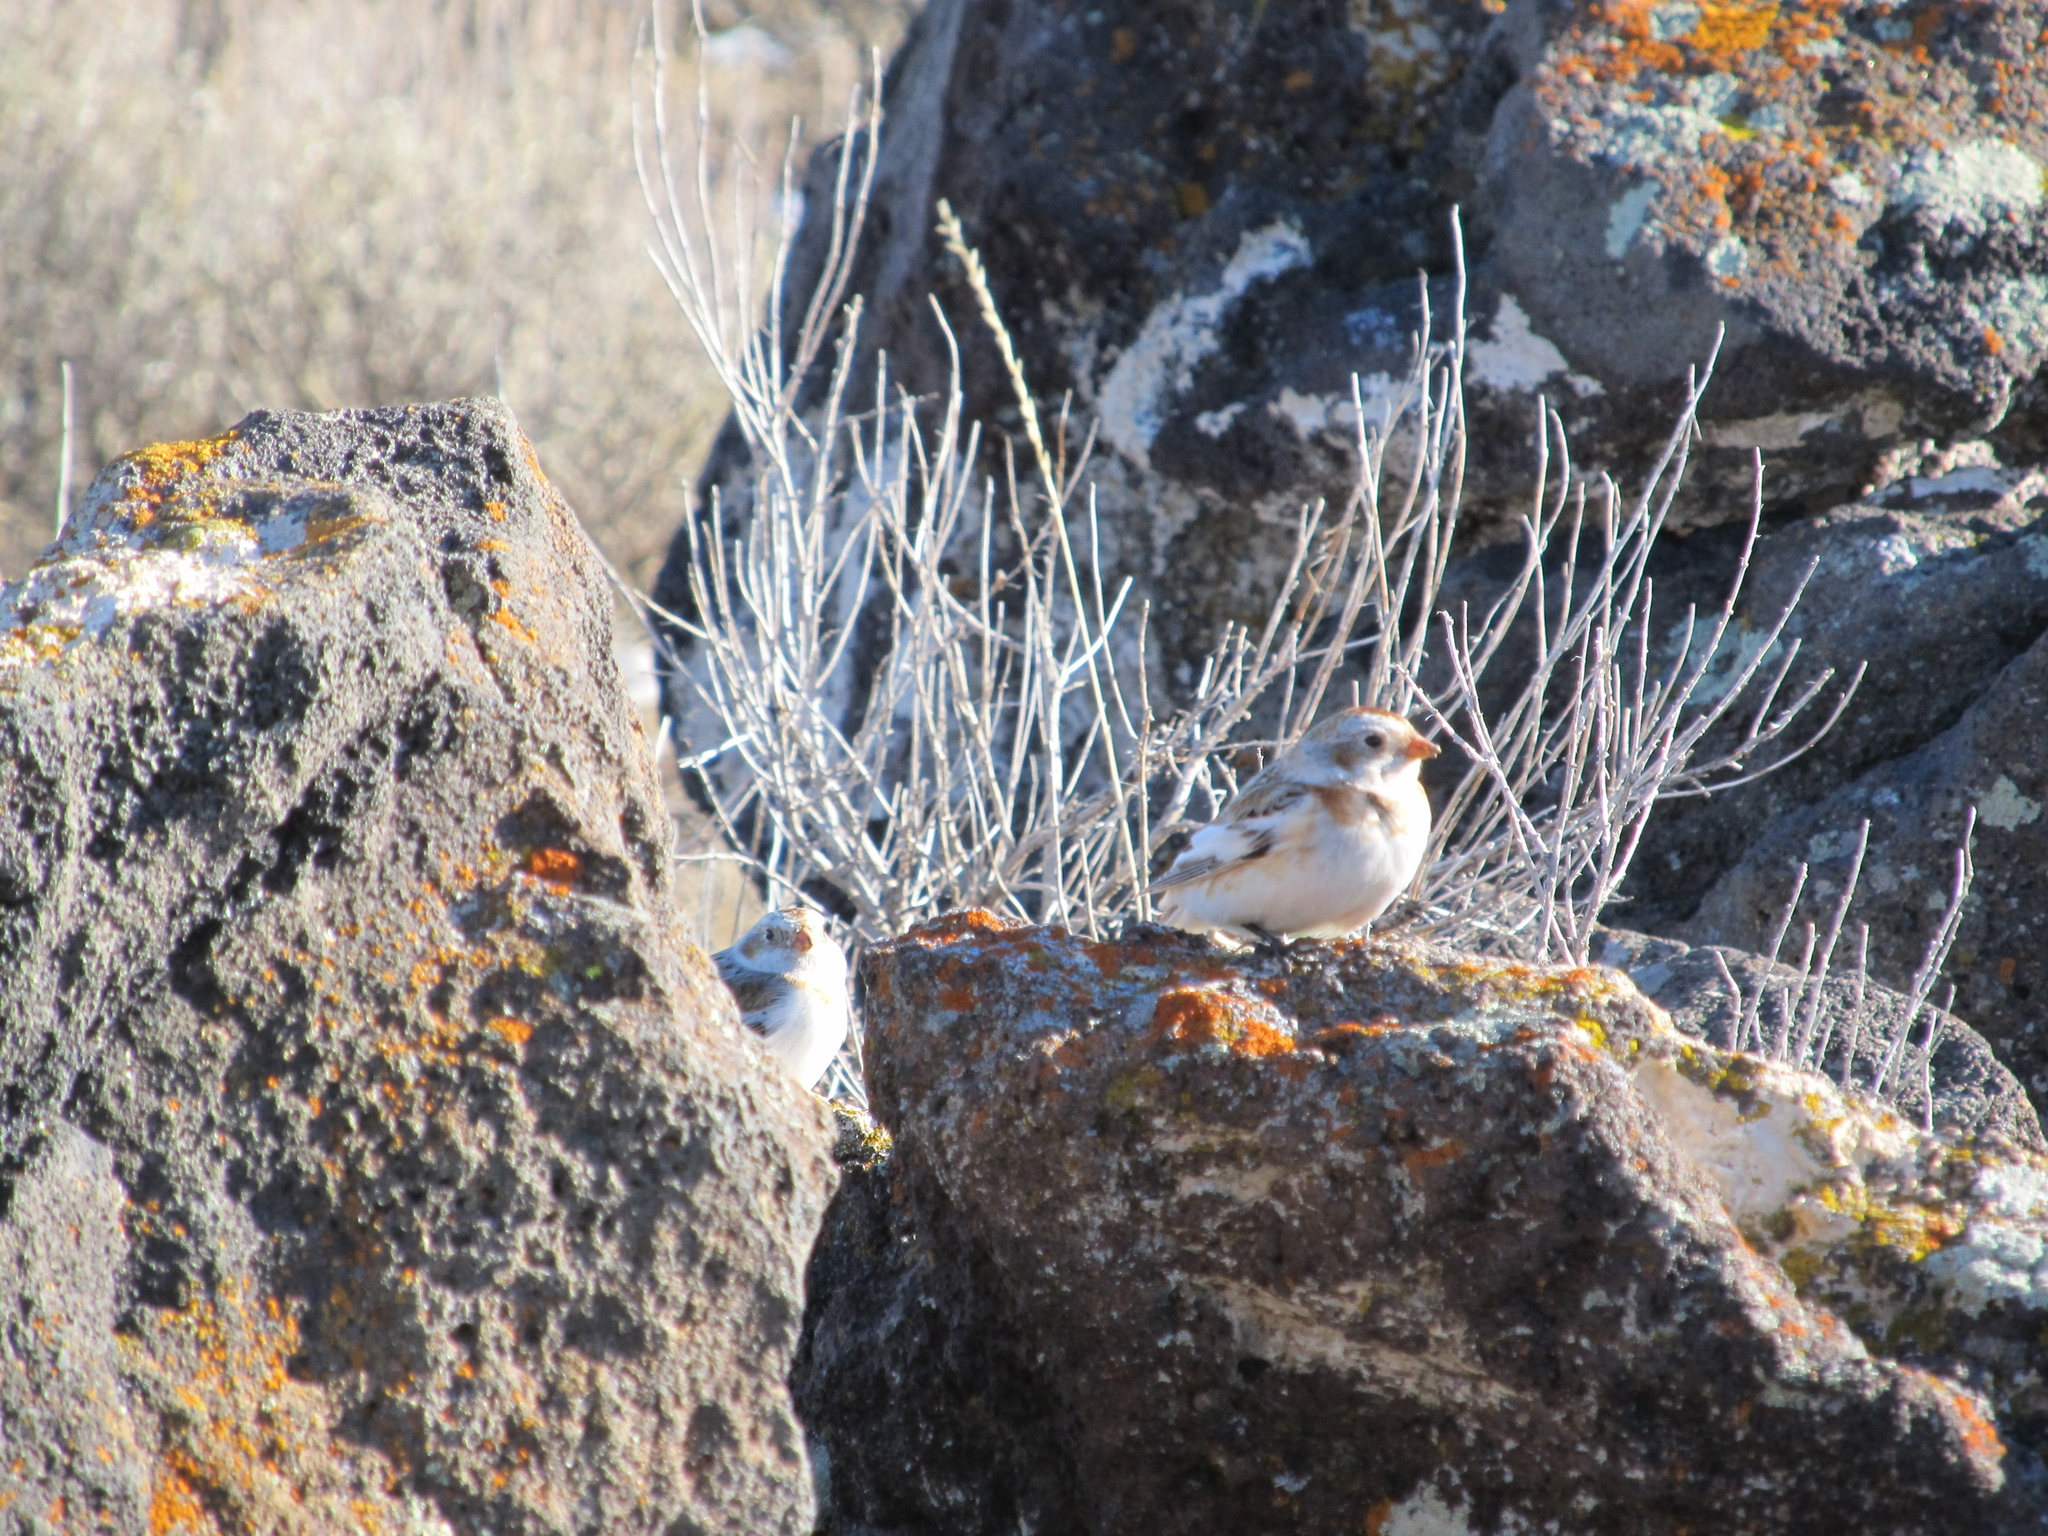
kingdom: Animalia
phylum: Chordata
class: Aves
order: Passeriformes
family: Calcariidae
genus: Plectrophenax
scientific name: Plectrophenax nivalis
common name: Snow bunting
